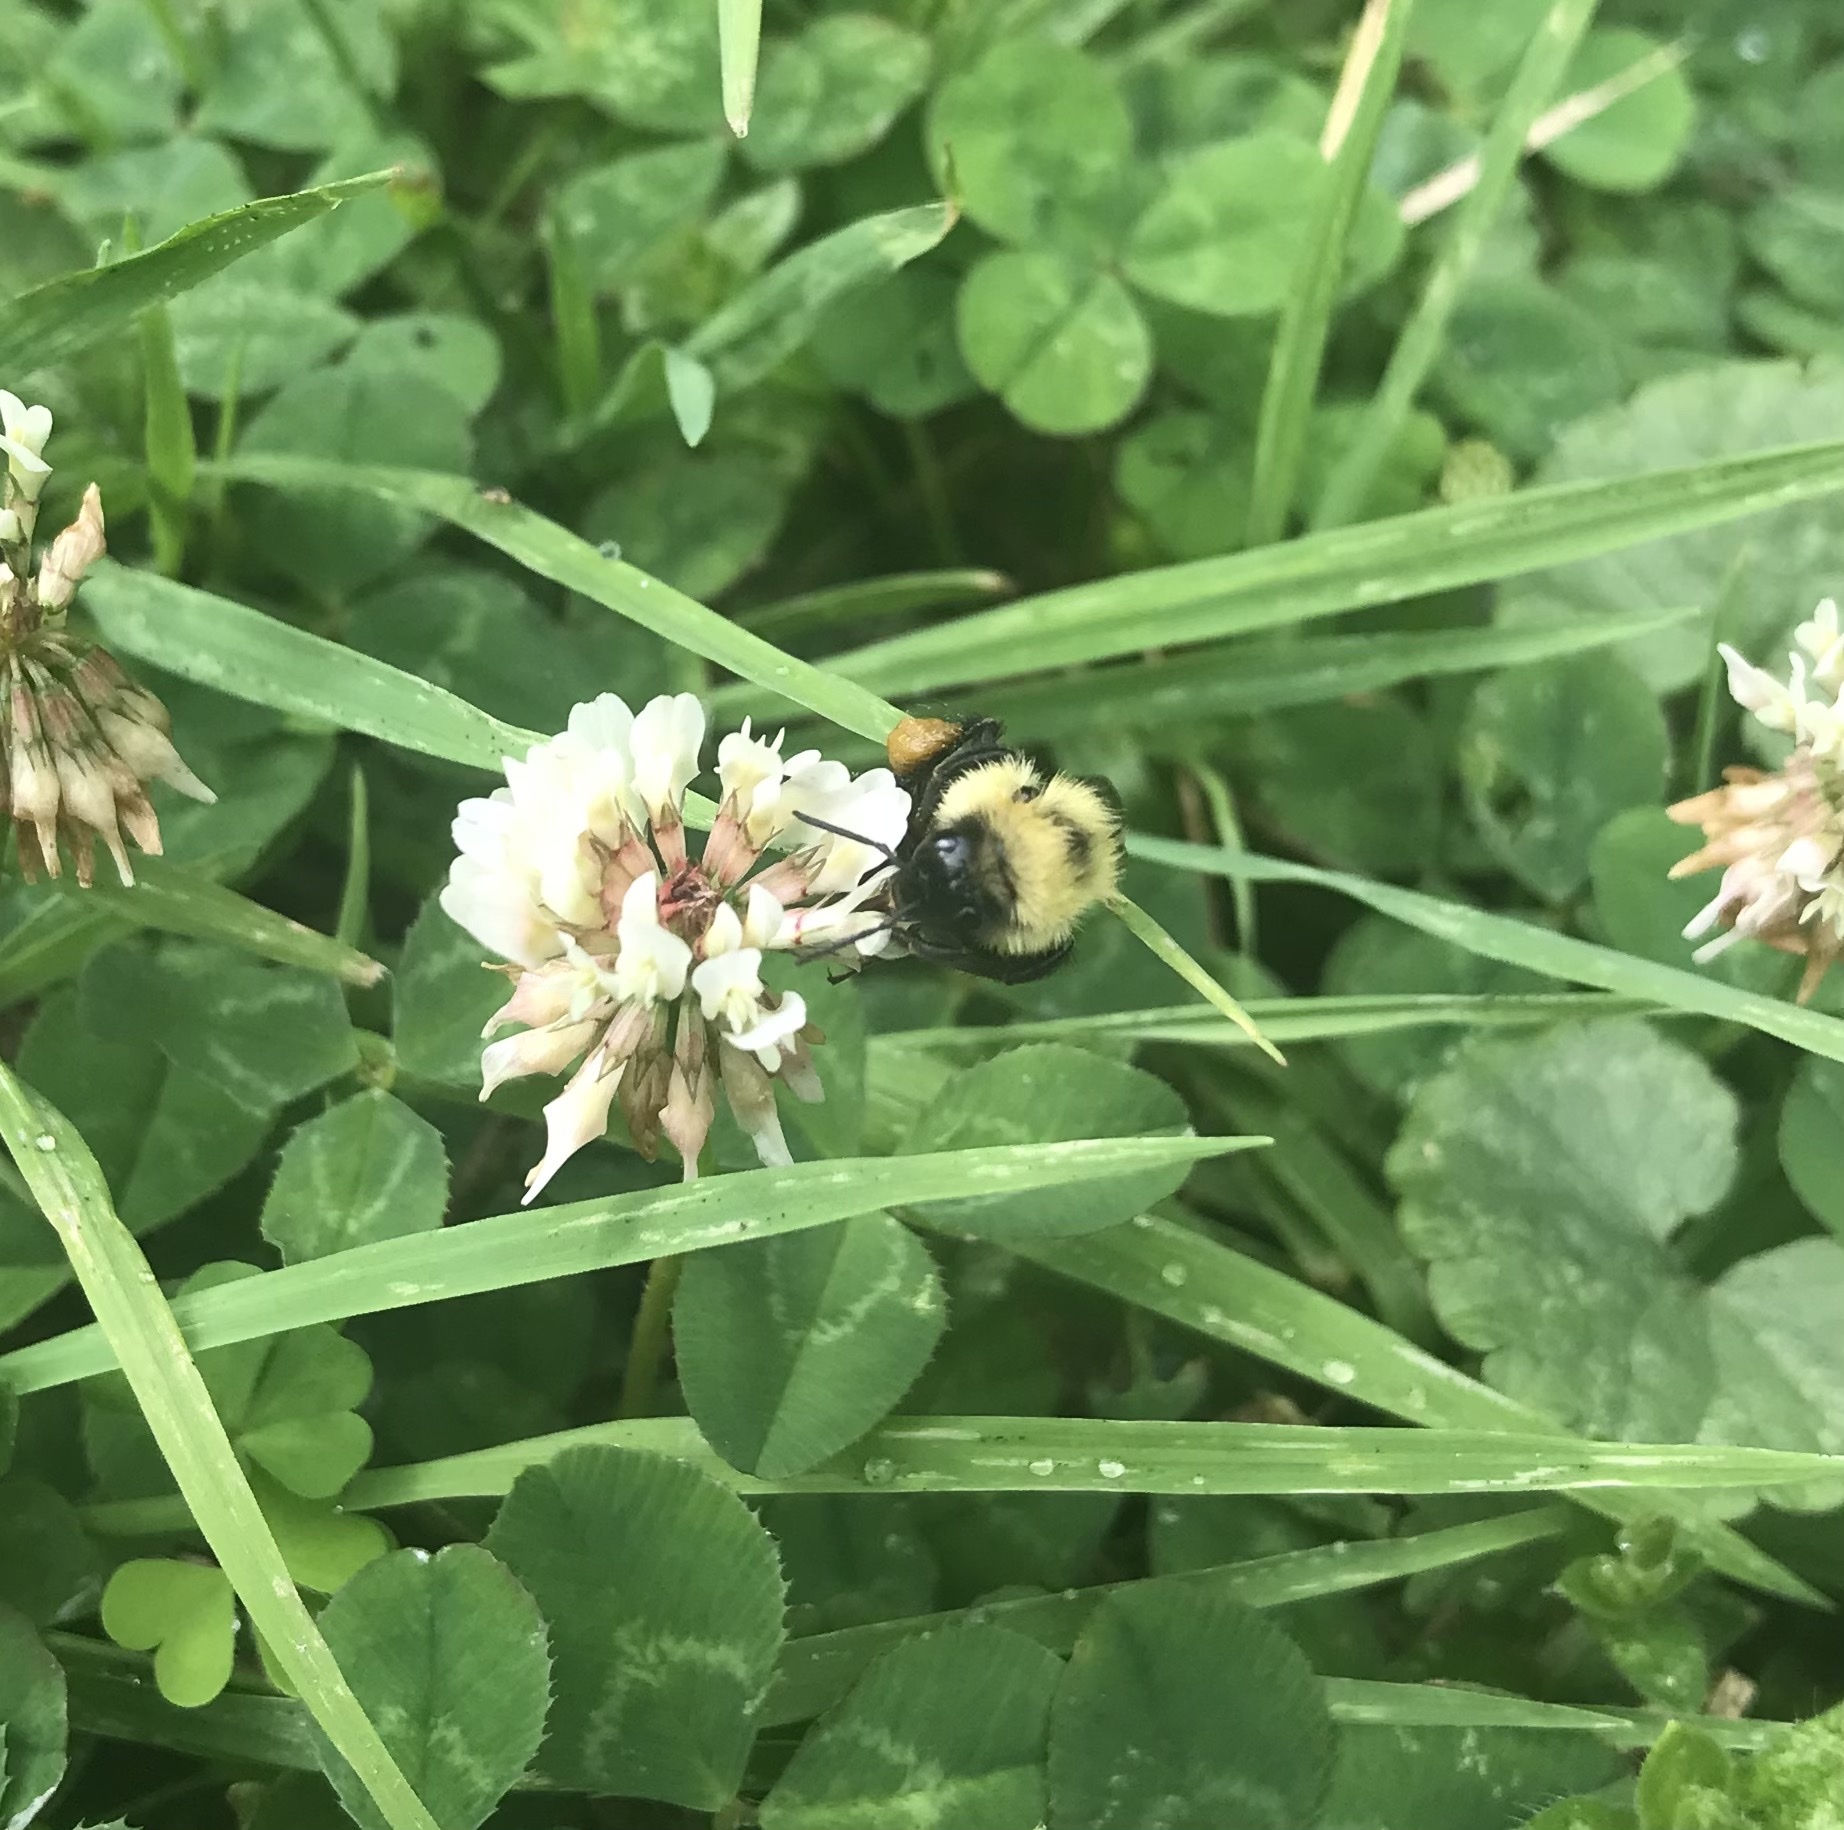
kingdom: Animalia
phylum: Arthropoda
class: Insecta
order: Hymenoptera
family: Apidae
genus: Bombus
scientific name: Bombus bimaculatus
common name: Two-spotted bumble bee
